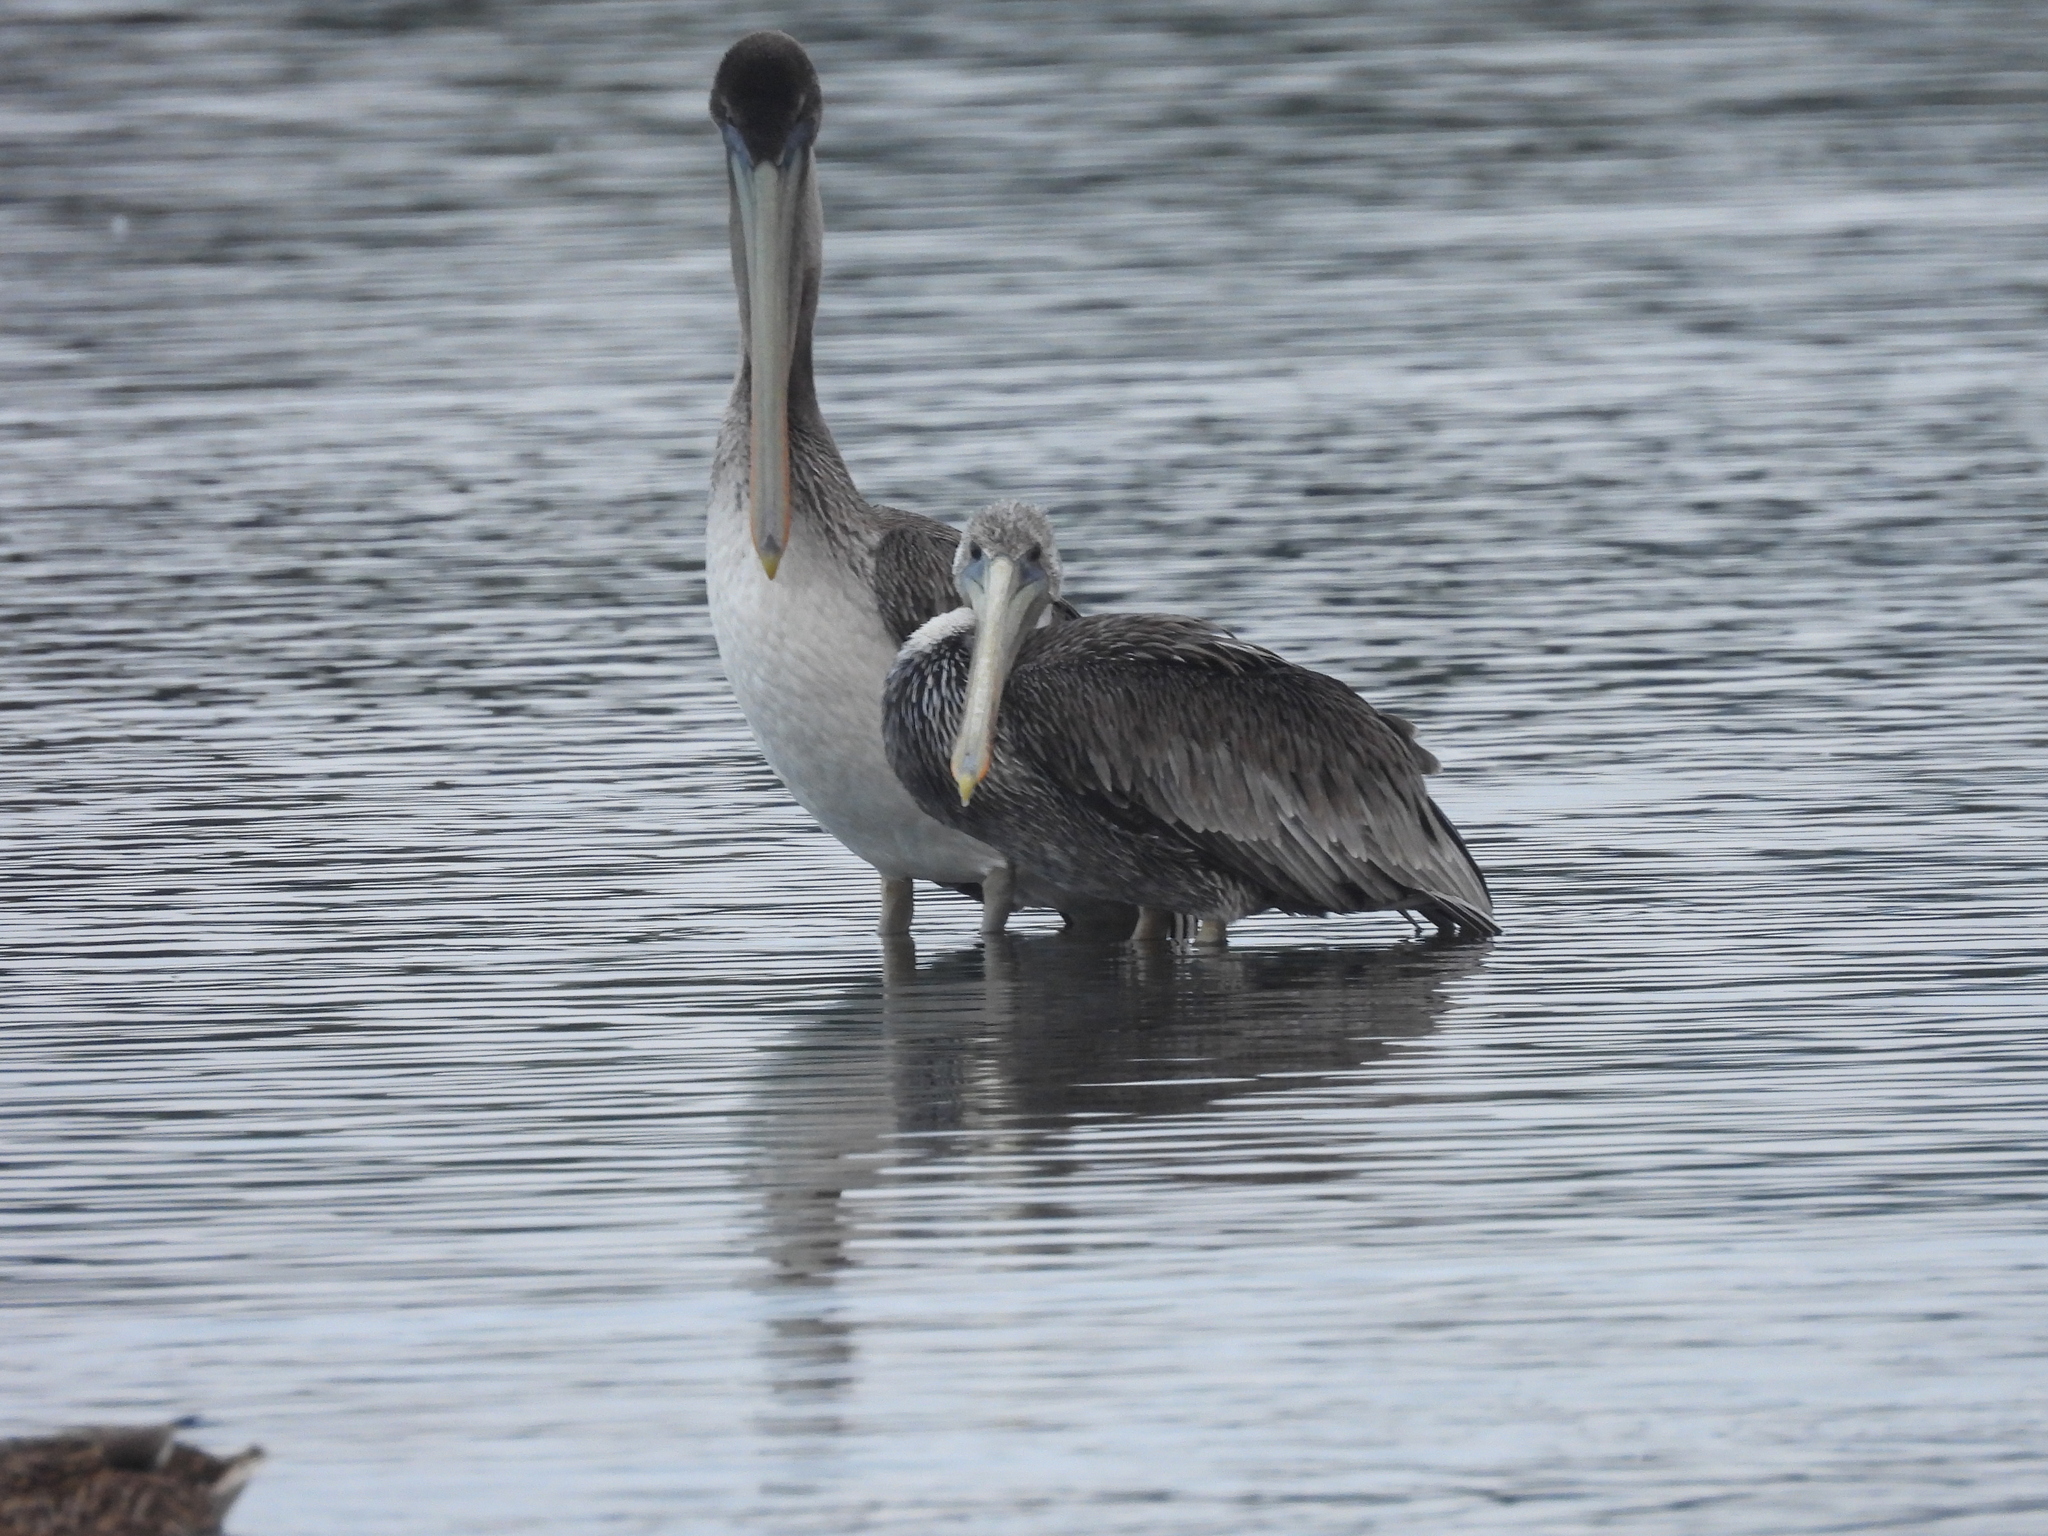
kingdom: Animalia
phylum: Chordata
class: Aves
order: Pelecaniformes
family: Pelecanidae
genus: Pelecanus
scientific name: Pelecanus occidentalis
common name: Brown pelican
